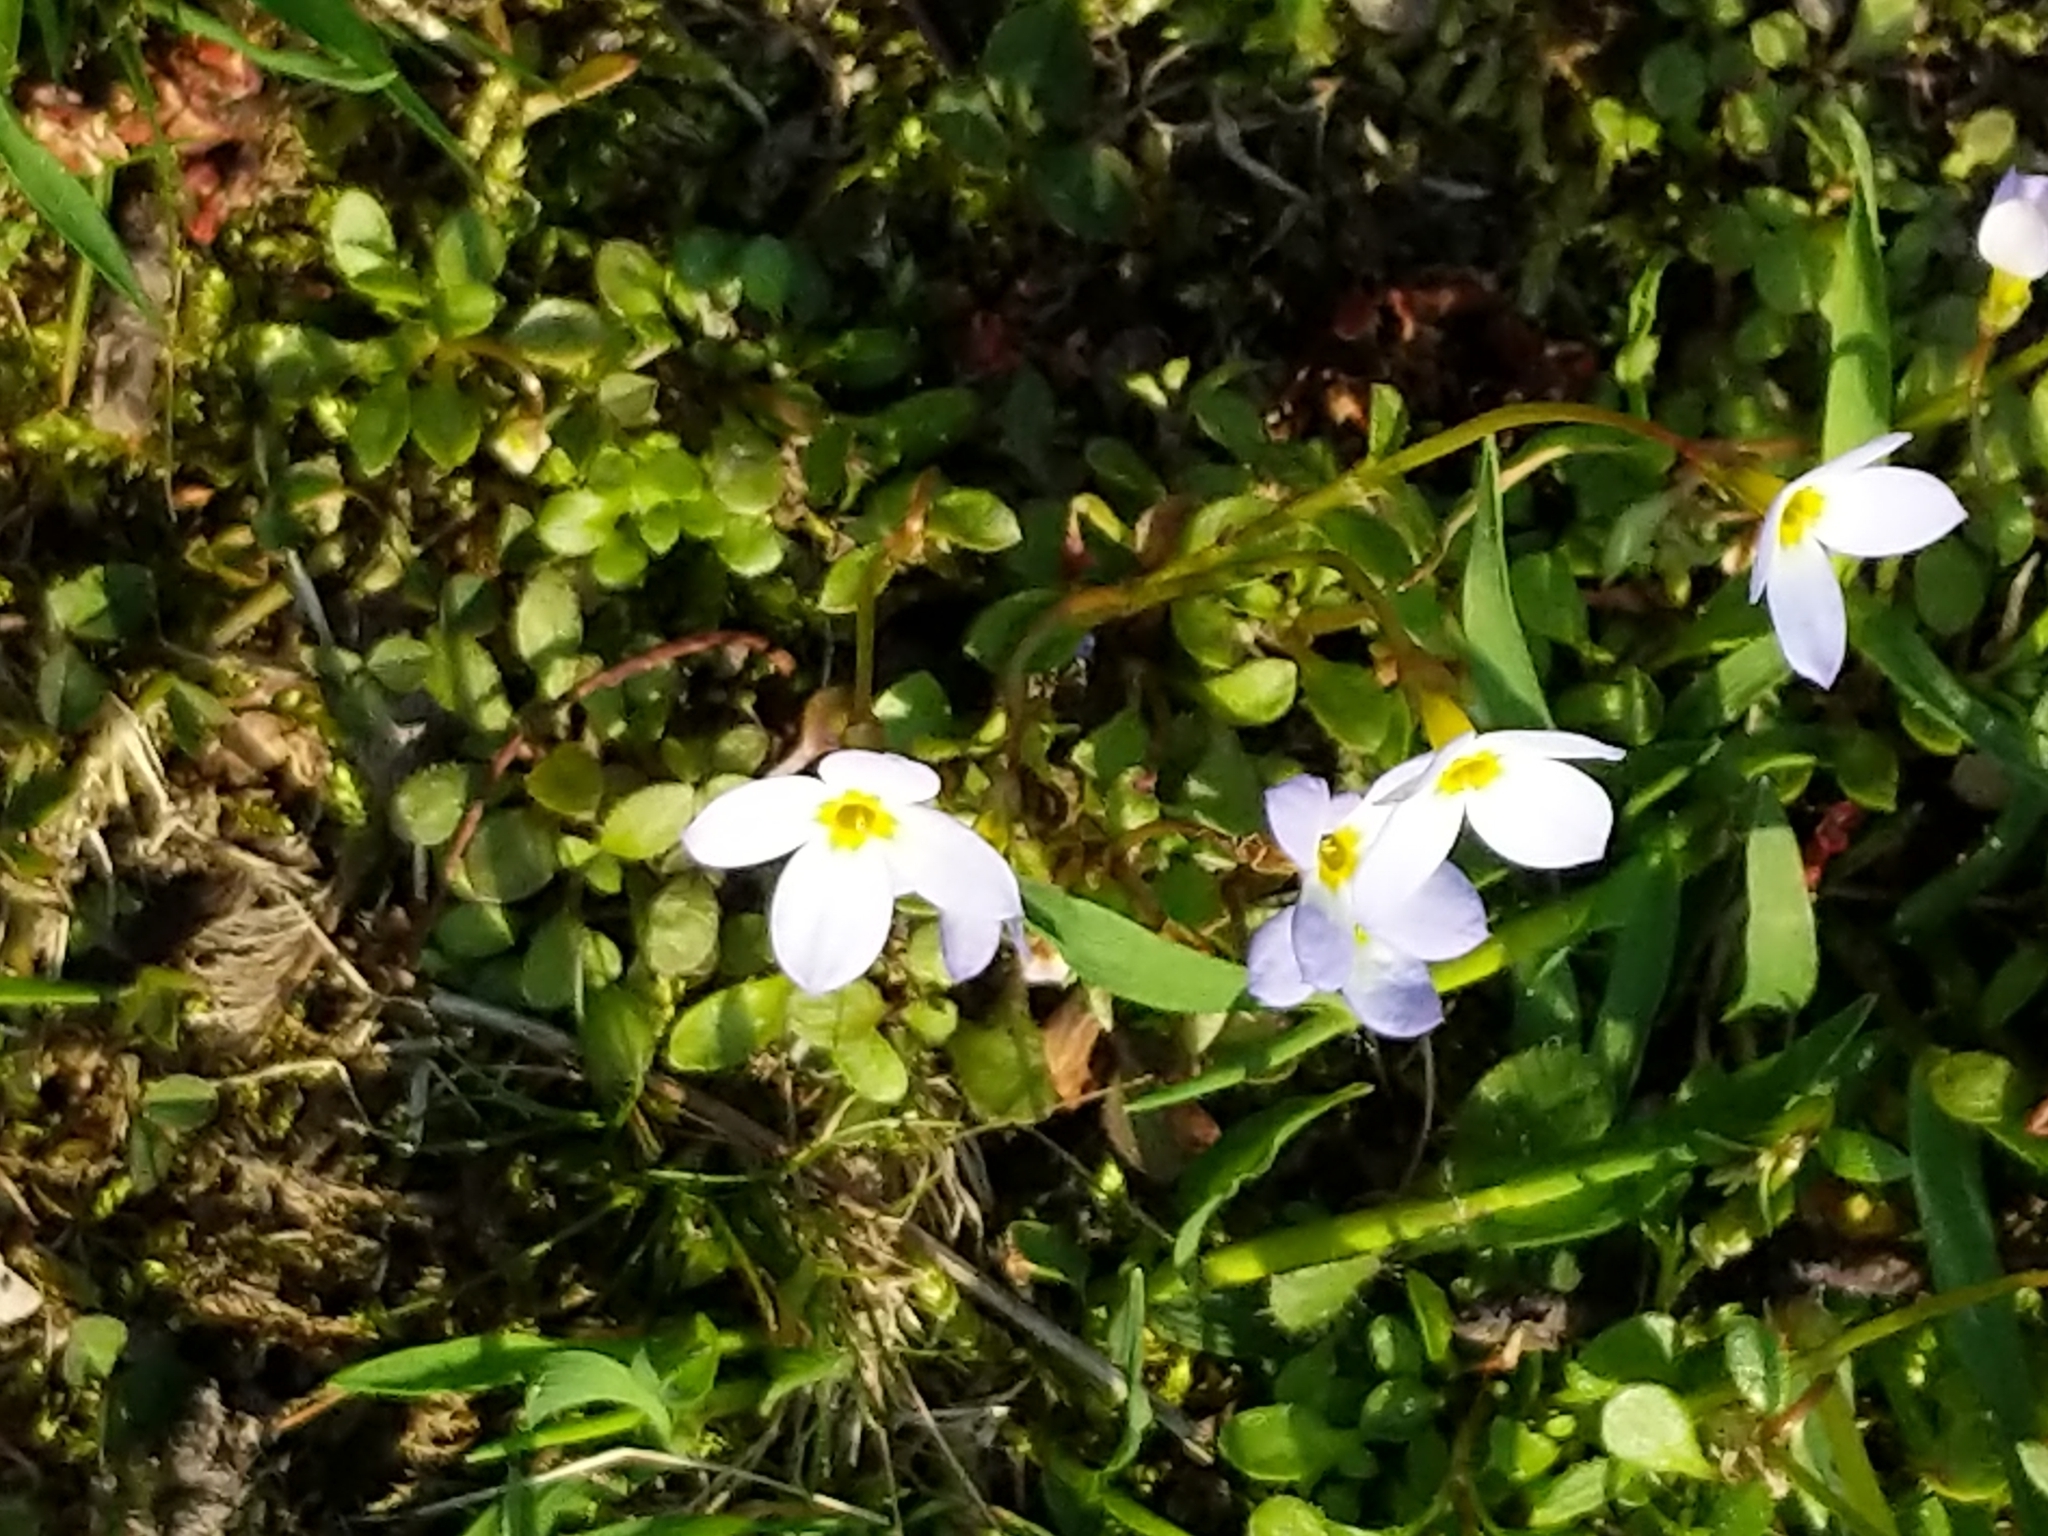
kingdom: Plantae
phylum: Tracheophyta
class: Magnoliopsida
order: Gentianales
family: Rubiaceae
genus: Houstonia
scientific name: Houstonia caerulea
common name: Bluets
